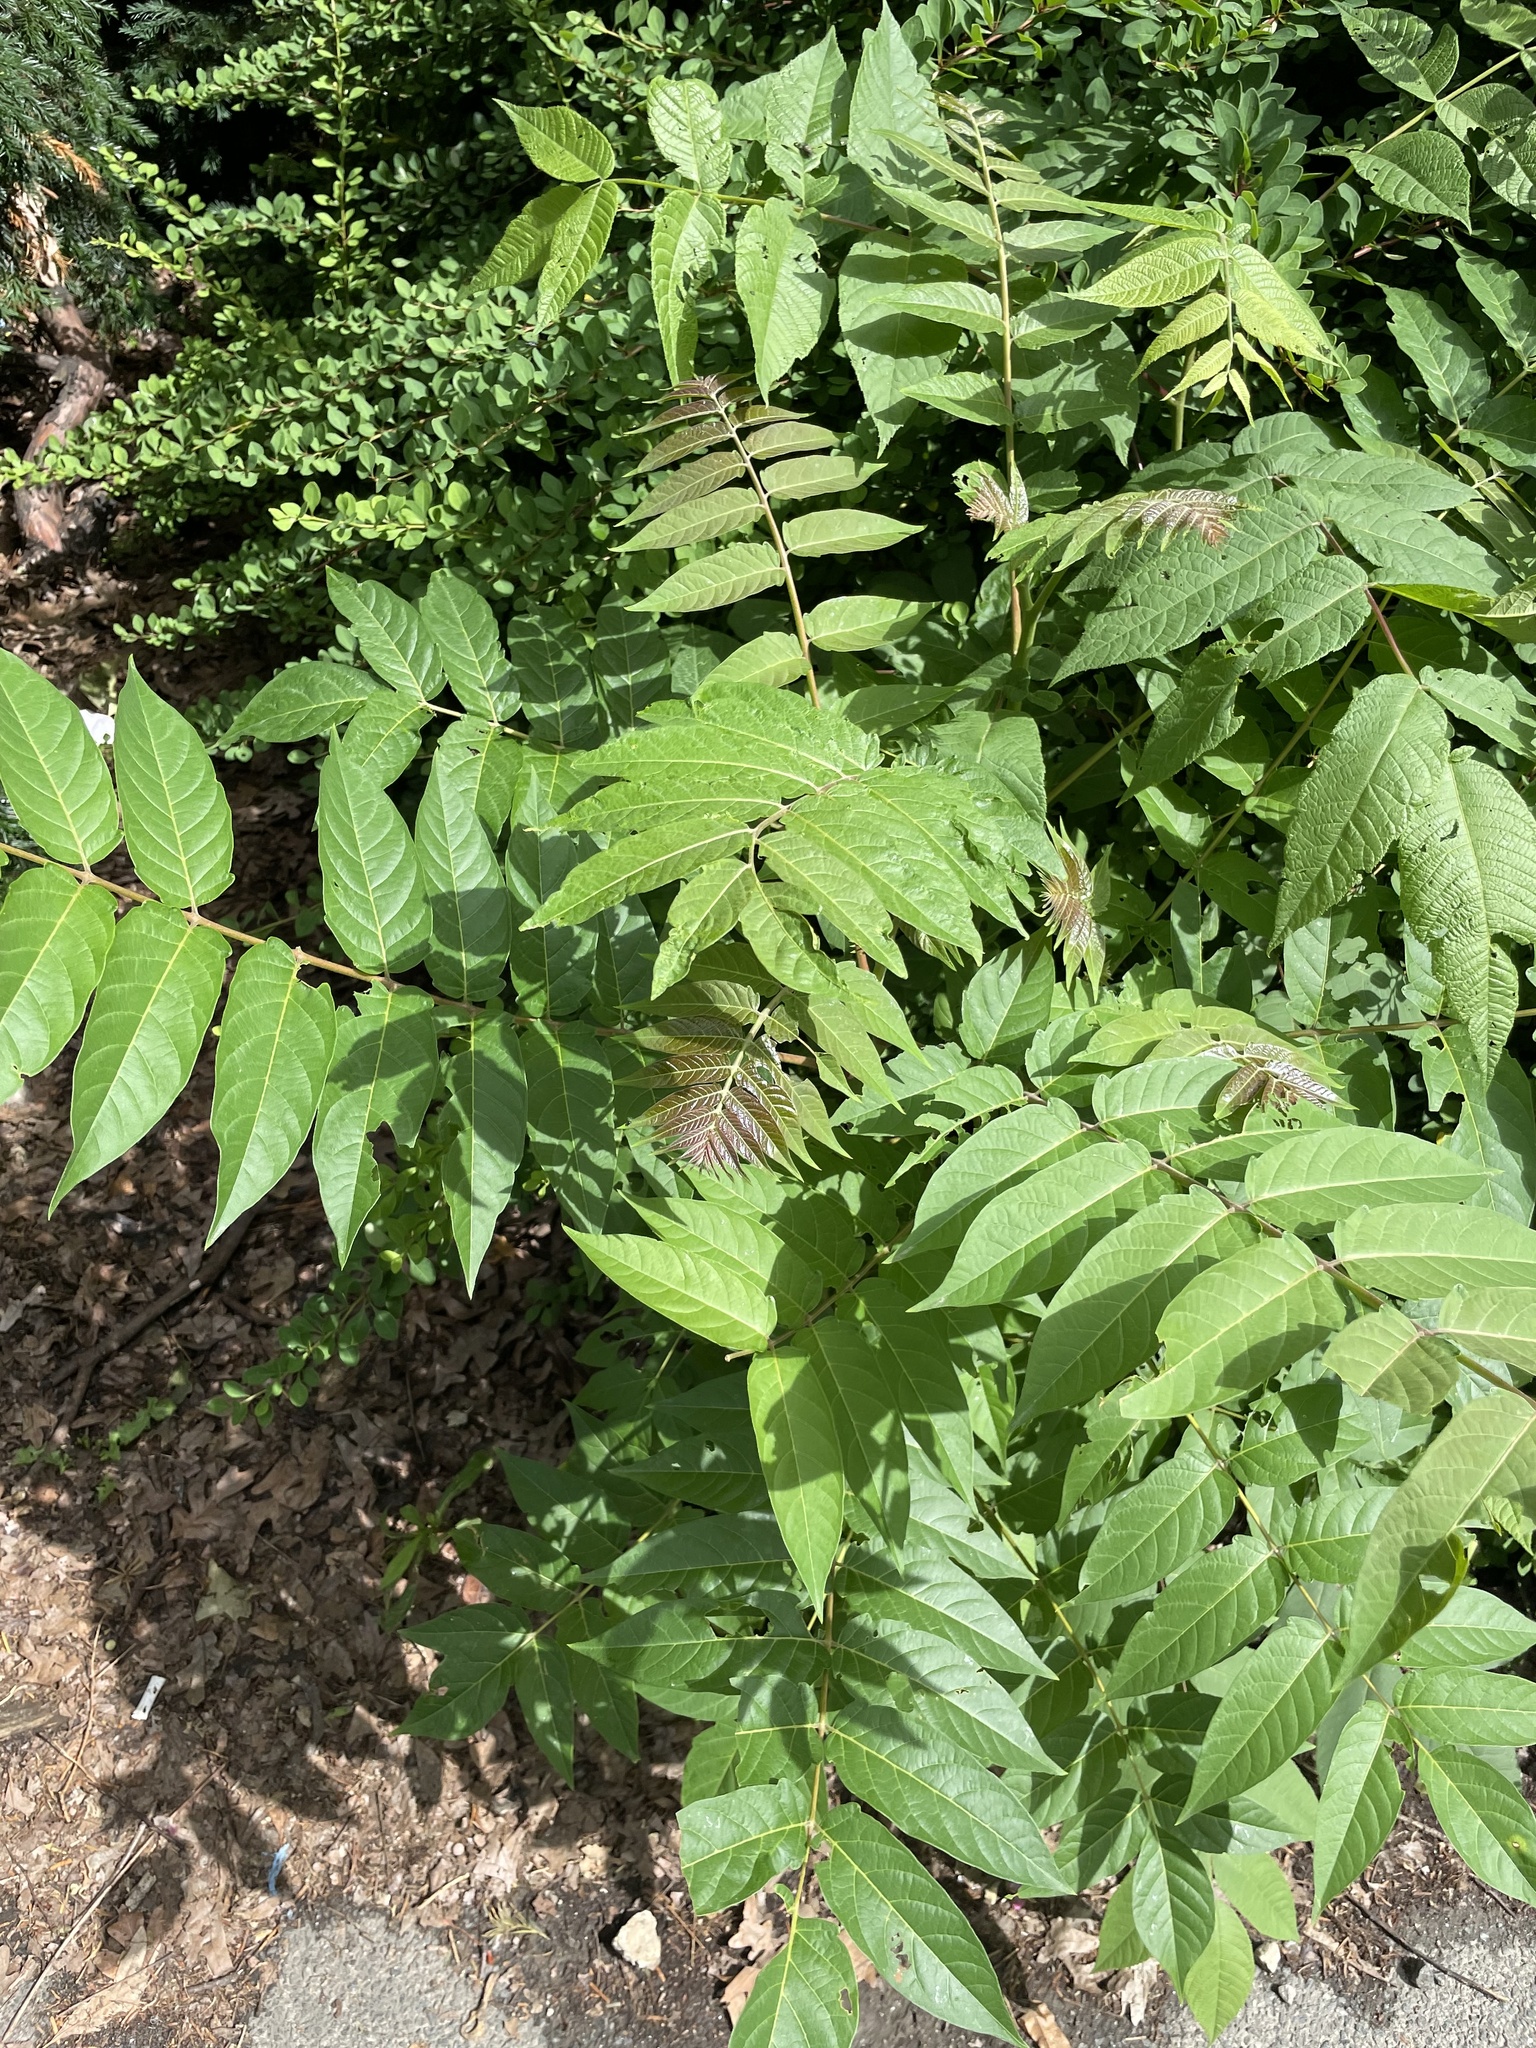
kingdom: Plantae
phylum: Tracheophyta
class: Magnoliopsida
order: Sapindales
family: Simaroubaceae
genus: Ailanthus
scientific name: Ailanthus altissima
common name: Tree-of-heaven
